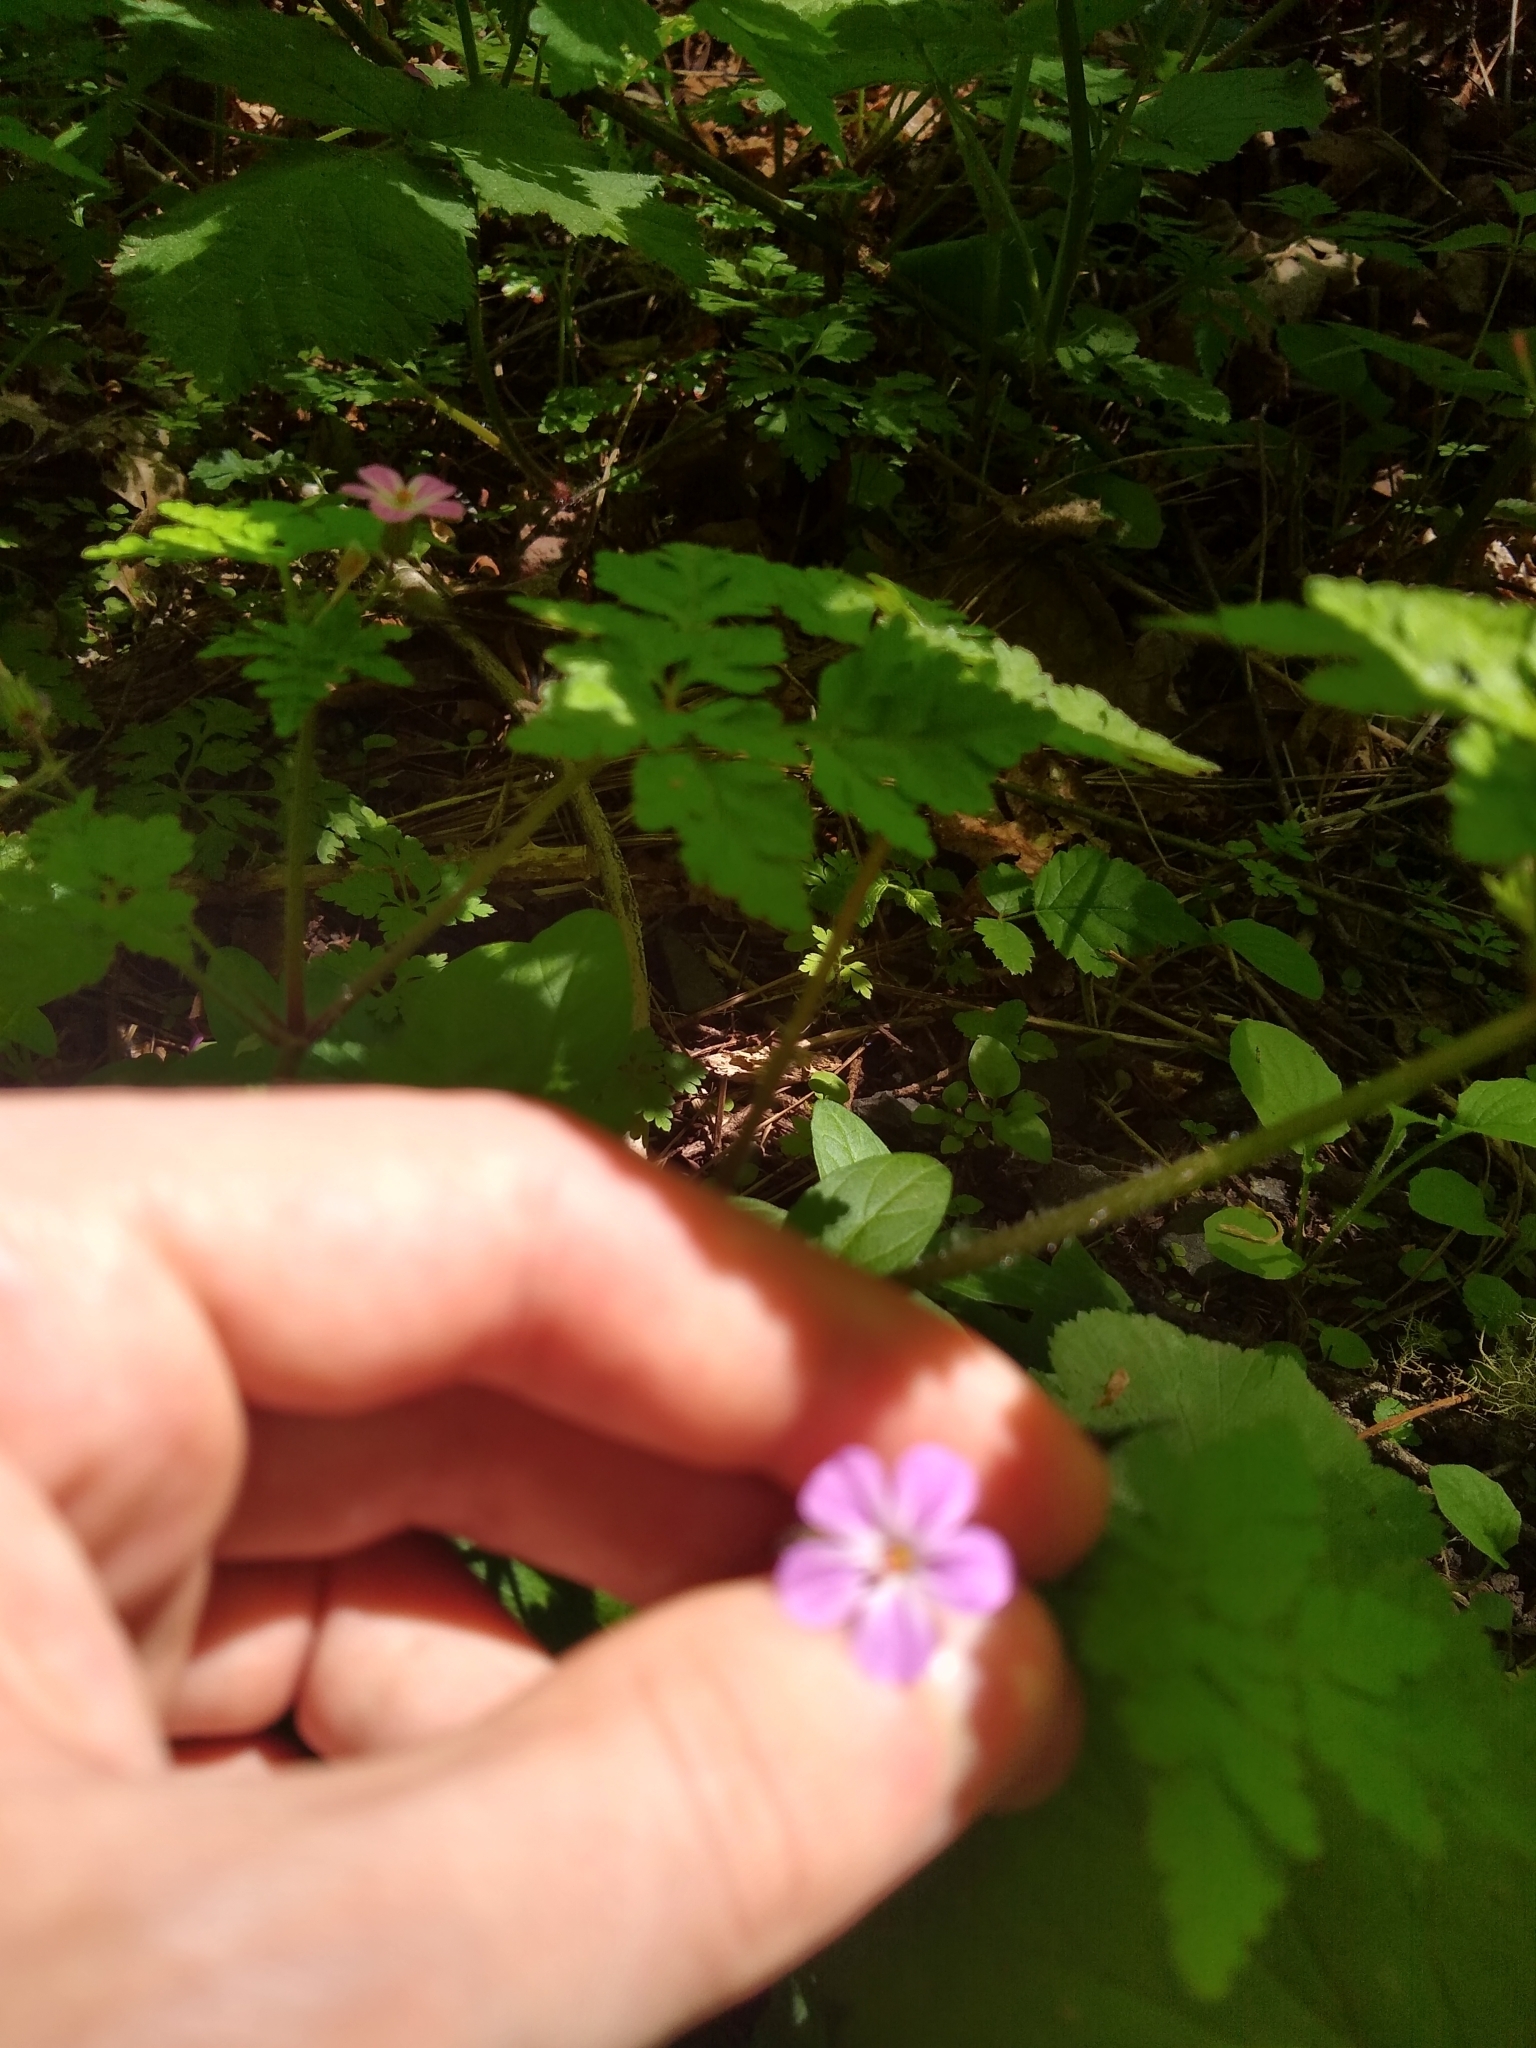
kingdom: Plantae
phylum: Tracheophyta
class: Magnoliopsida
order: Geraniales
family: Geraniaceae
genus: Geranium
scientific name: Geranium robertianum
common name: Herb-robert
